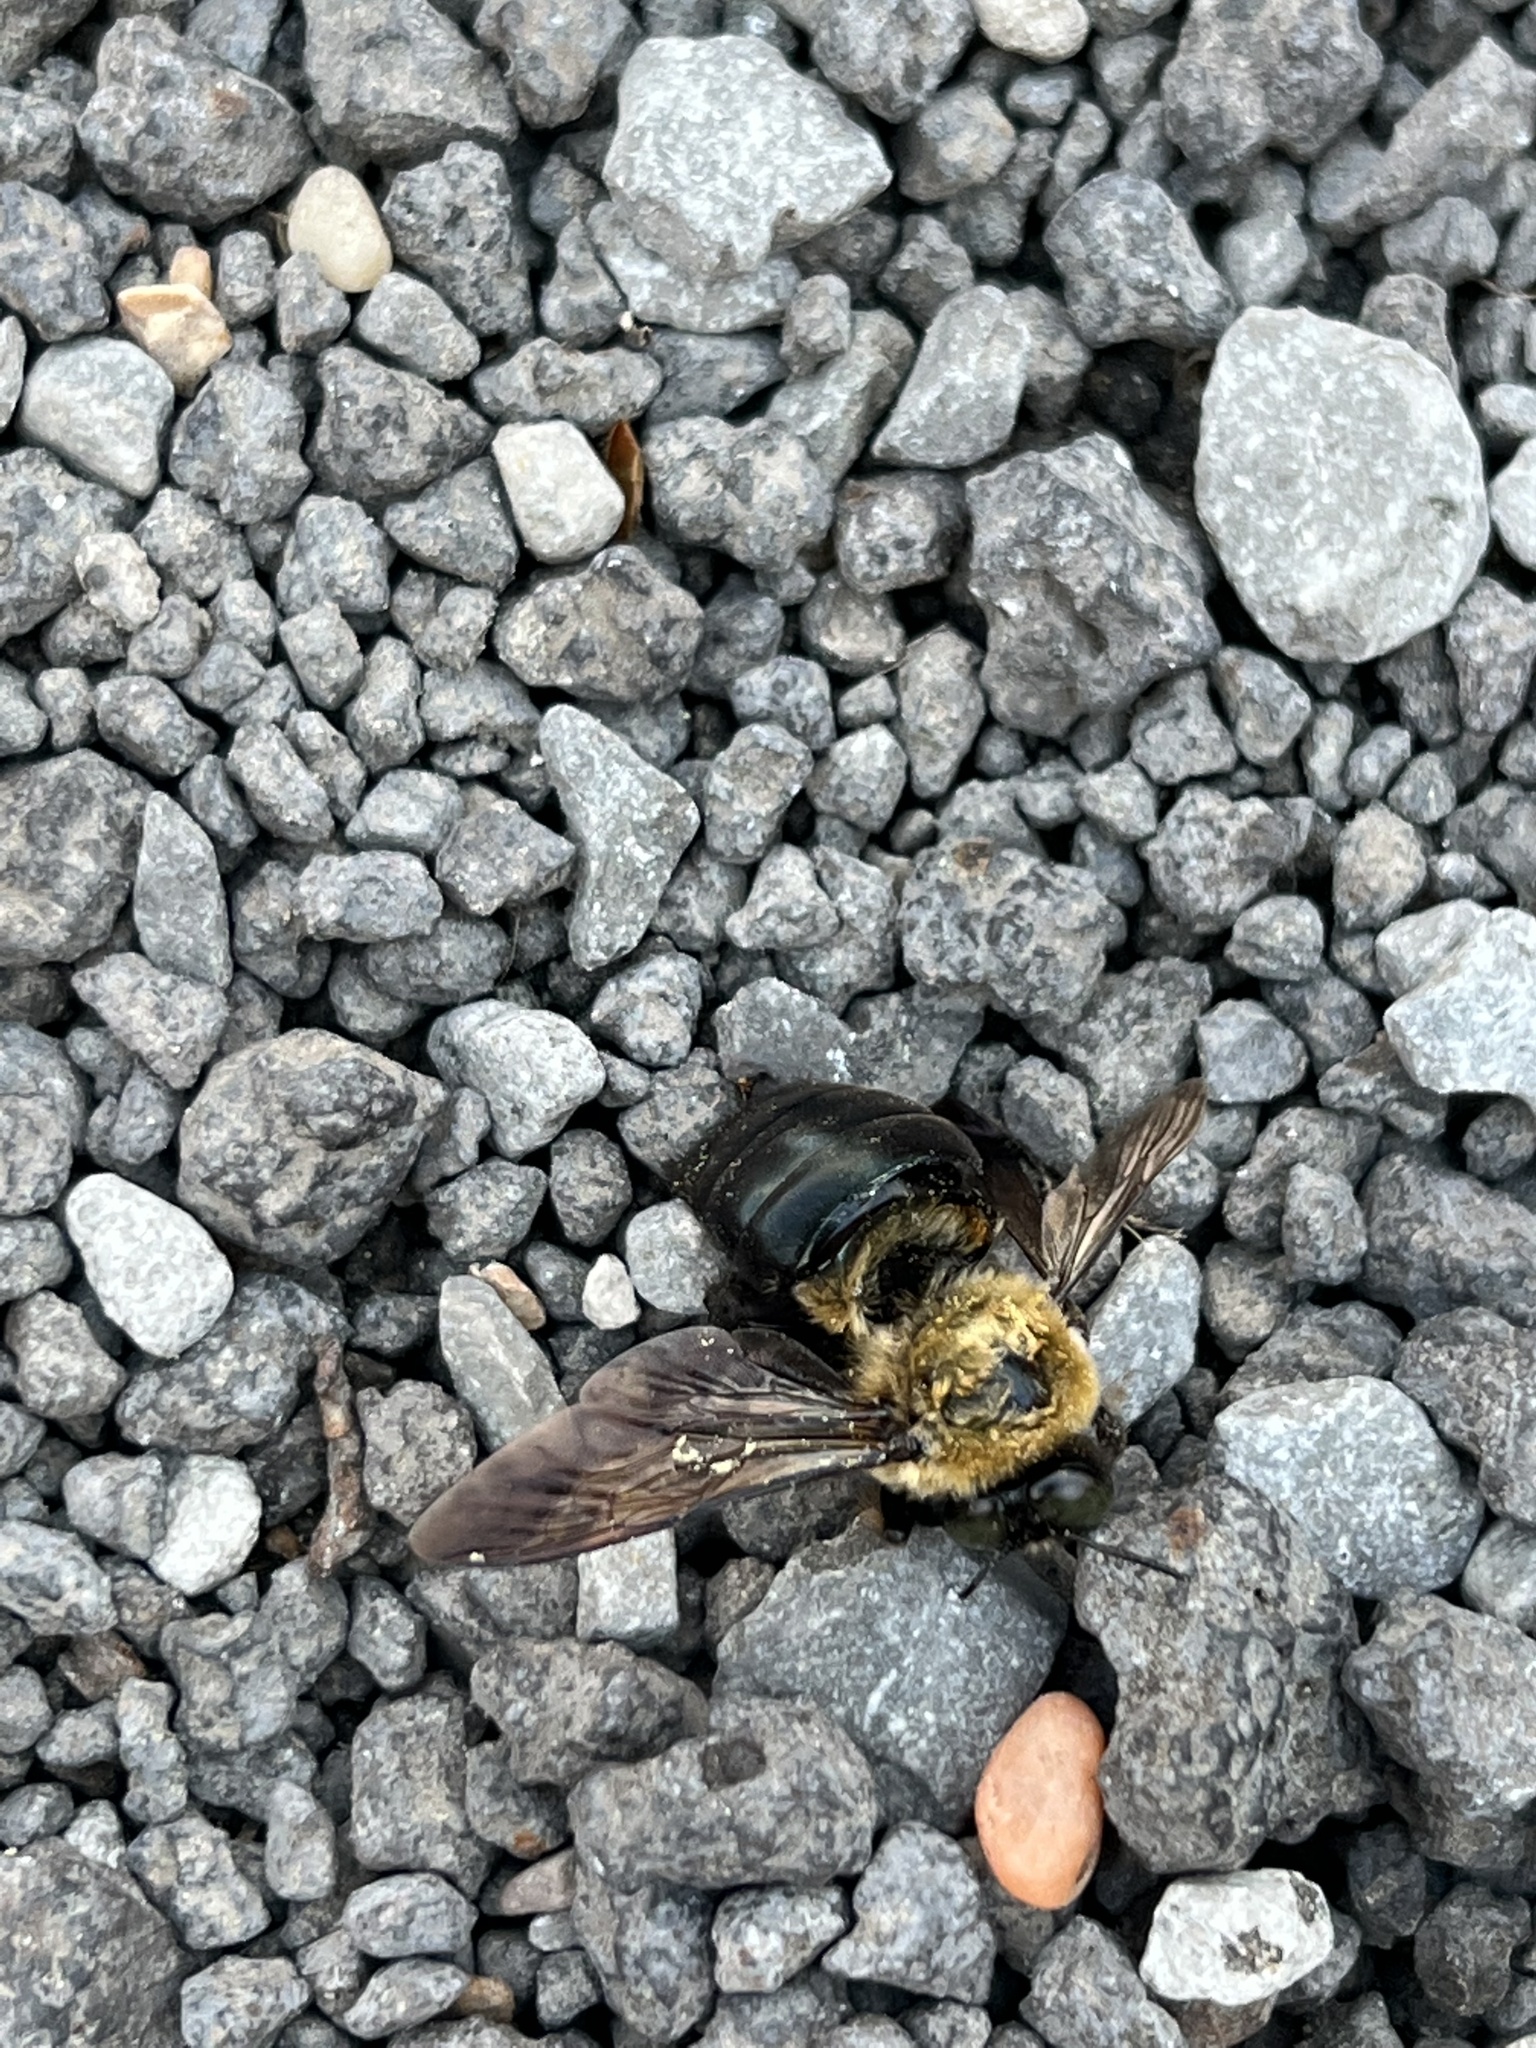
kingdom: Animalia
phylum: Arthropoda
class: Insecta
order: Hymenoptera
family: Apidae
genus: Xylocopa
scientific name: Xylocopa virginica
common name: Carpenter bee
